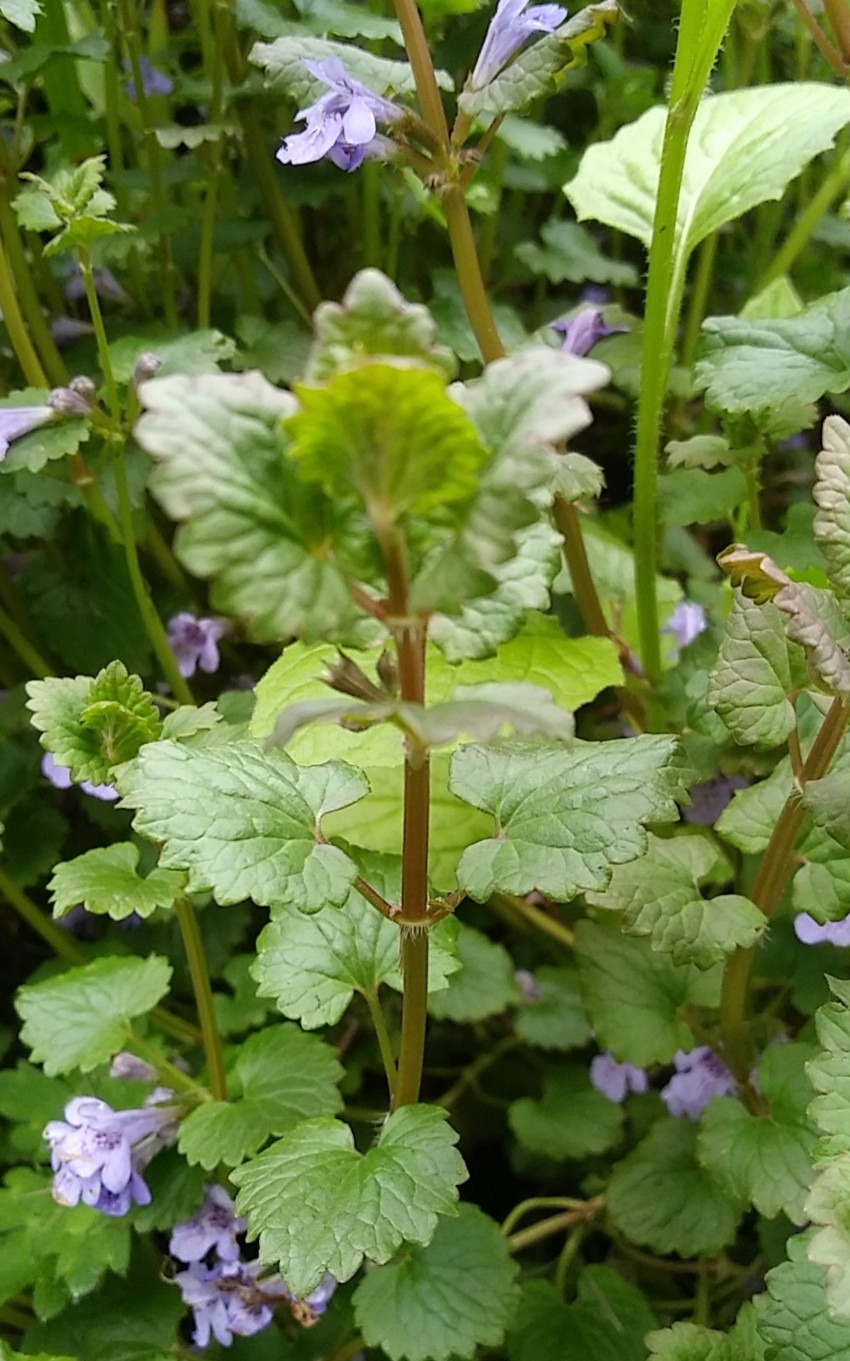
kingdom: Plantae
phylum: Tracheophyta
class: Magnoliopsida
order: Lamiales
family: Lamiaceae
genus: Glechoma
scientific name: Glechoma hederacea
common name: Ground ivy
